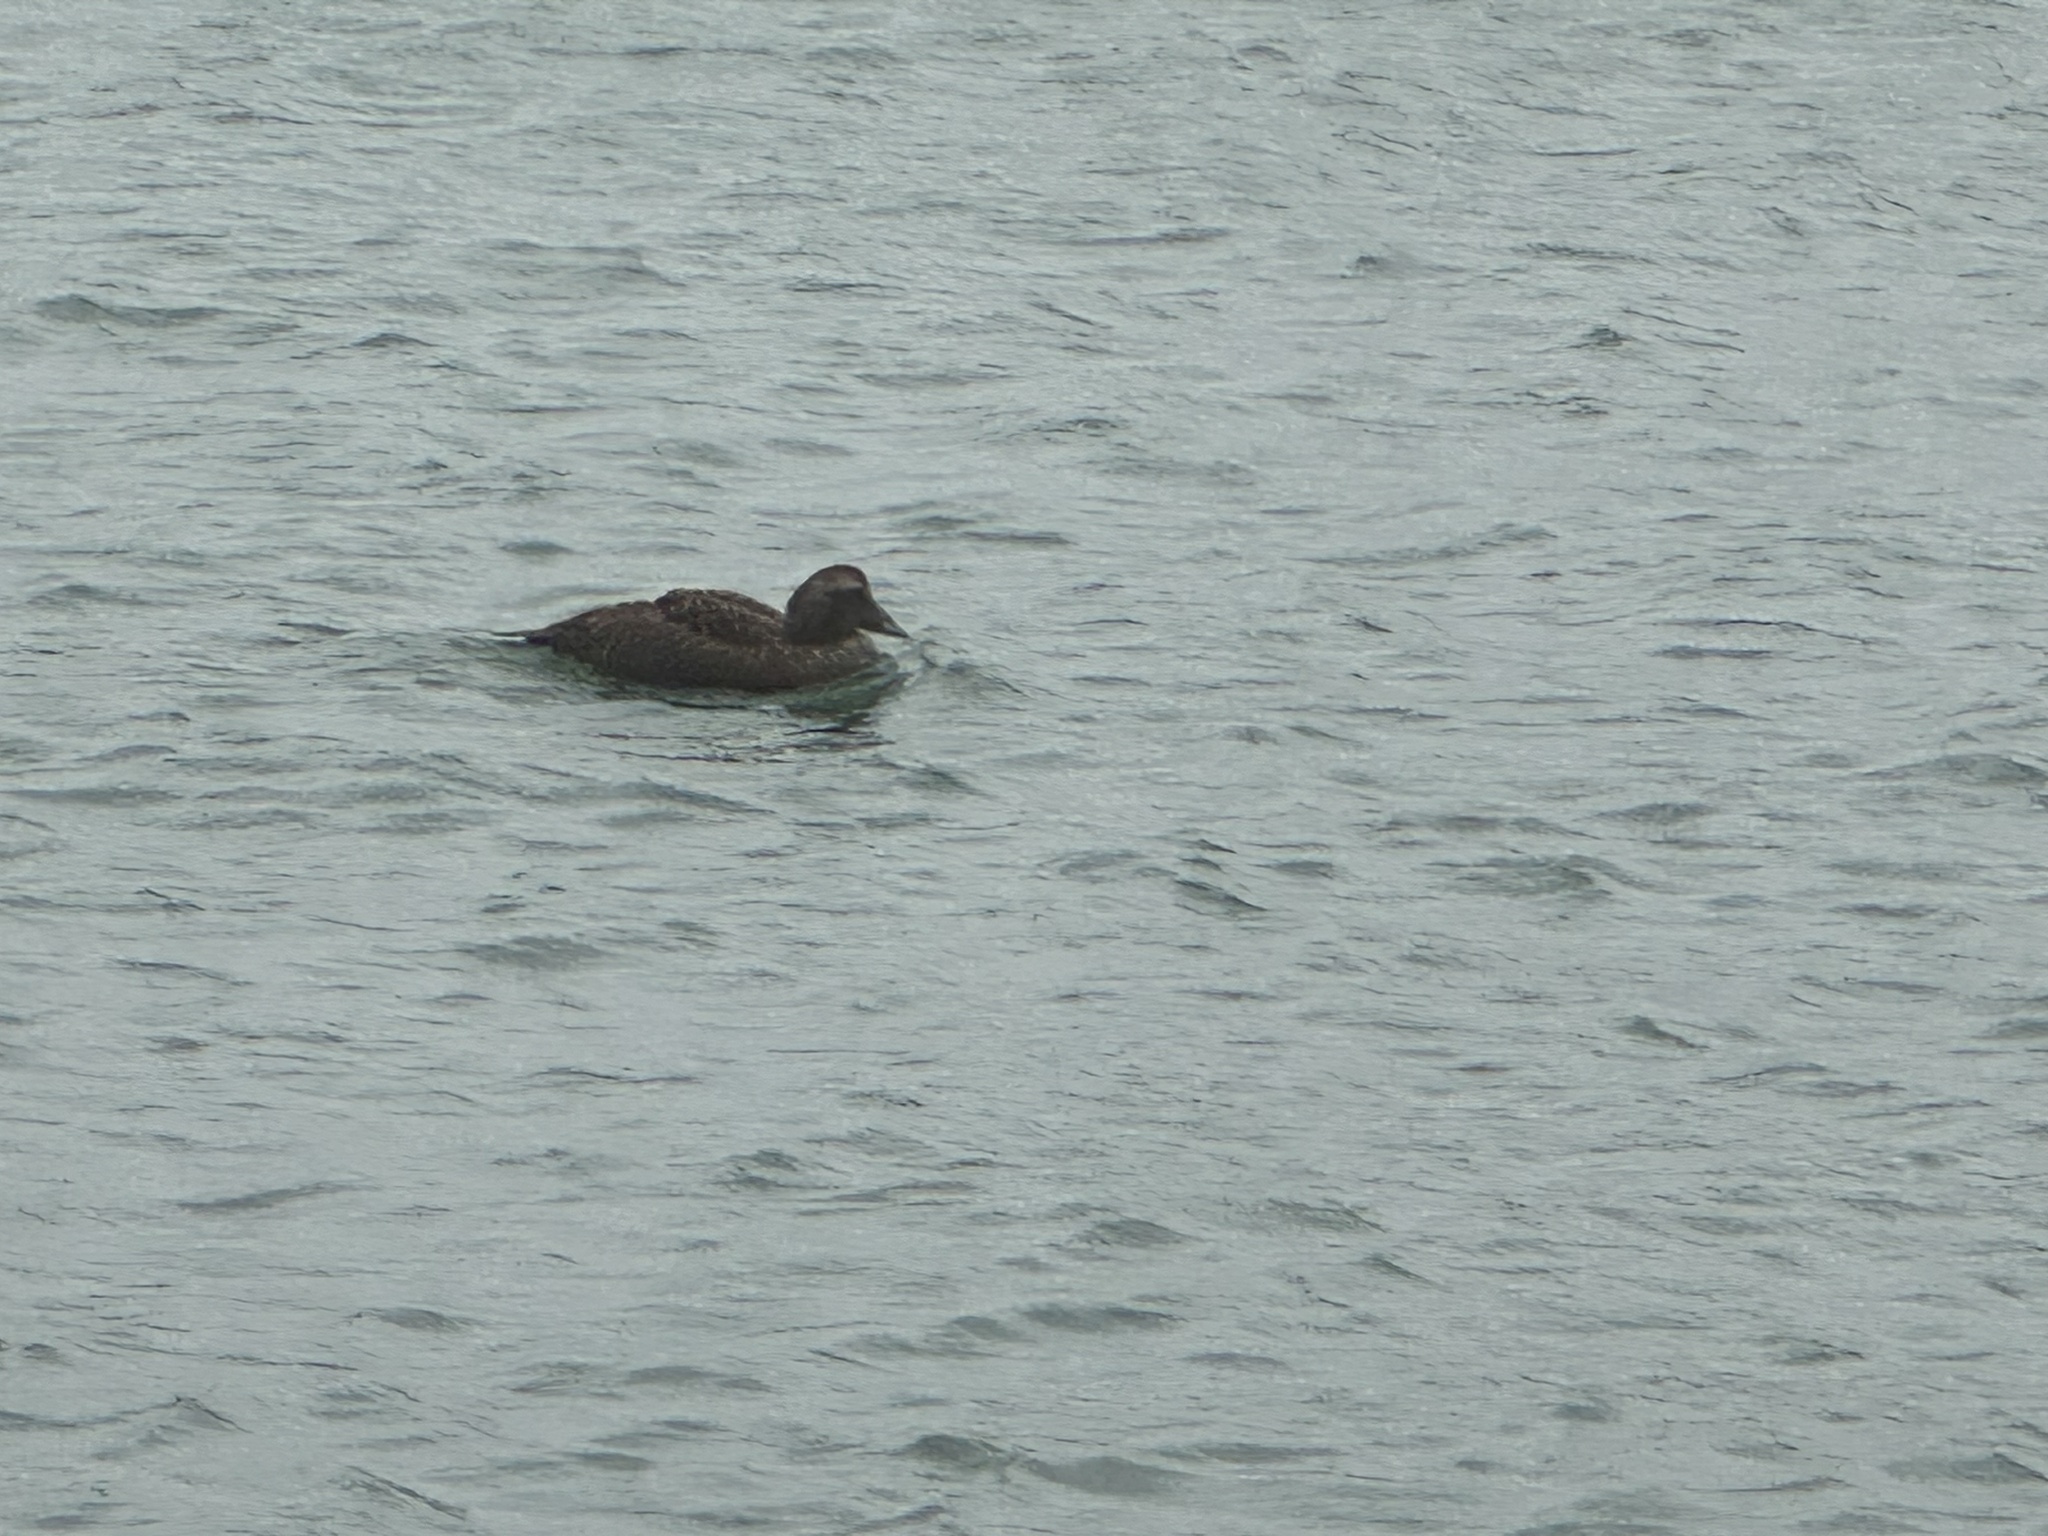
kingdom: Animalia
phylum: Chordata
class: Aves
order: Anseriformes
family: Anatidae
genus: Somateria
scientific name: Somateria mollissima
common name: Common eider
